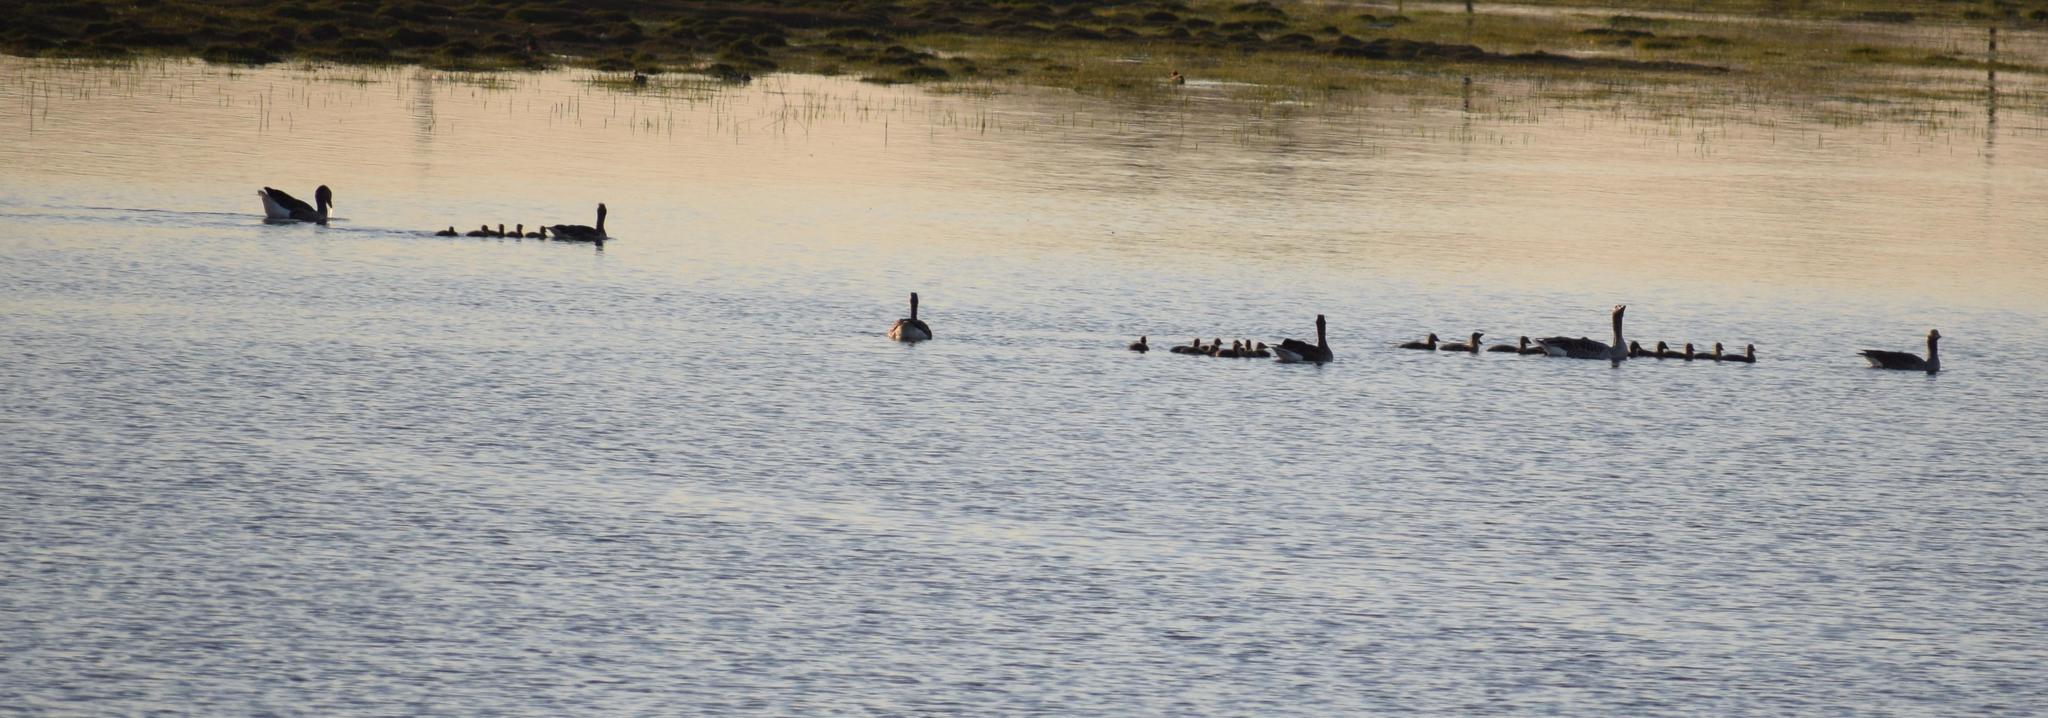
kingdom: Animalia
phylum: Chordata
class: Aves
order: Anseriformes
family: Anatidae
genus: Anser
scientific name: Anser anser
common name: Greylag goose
